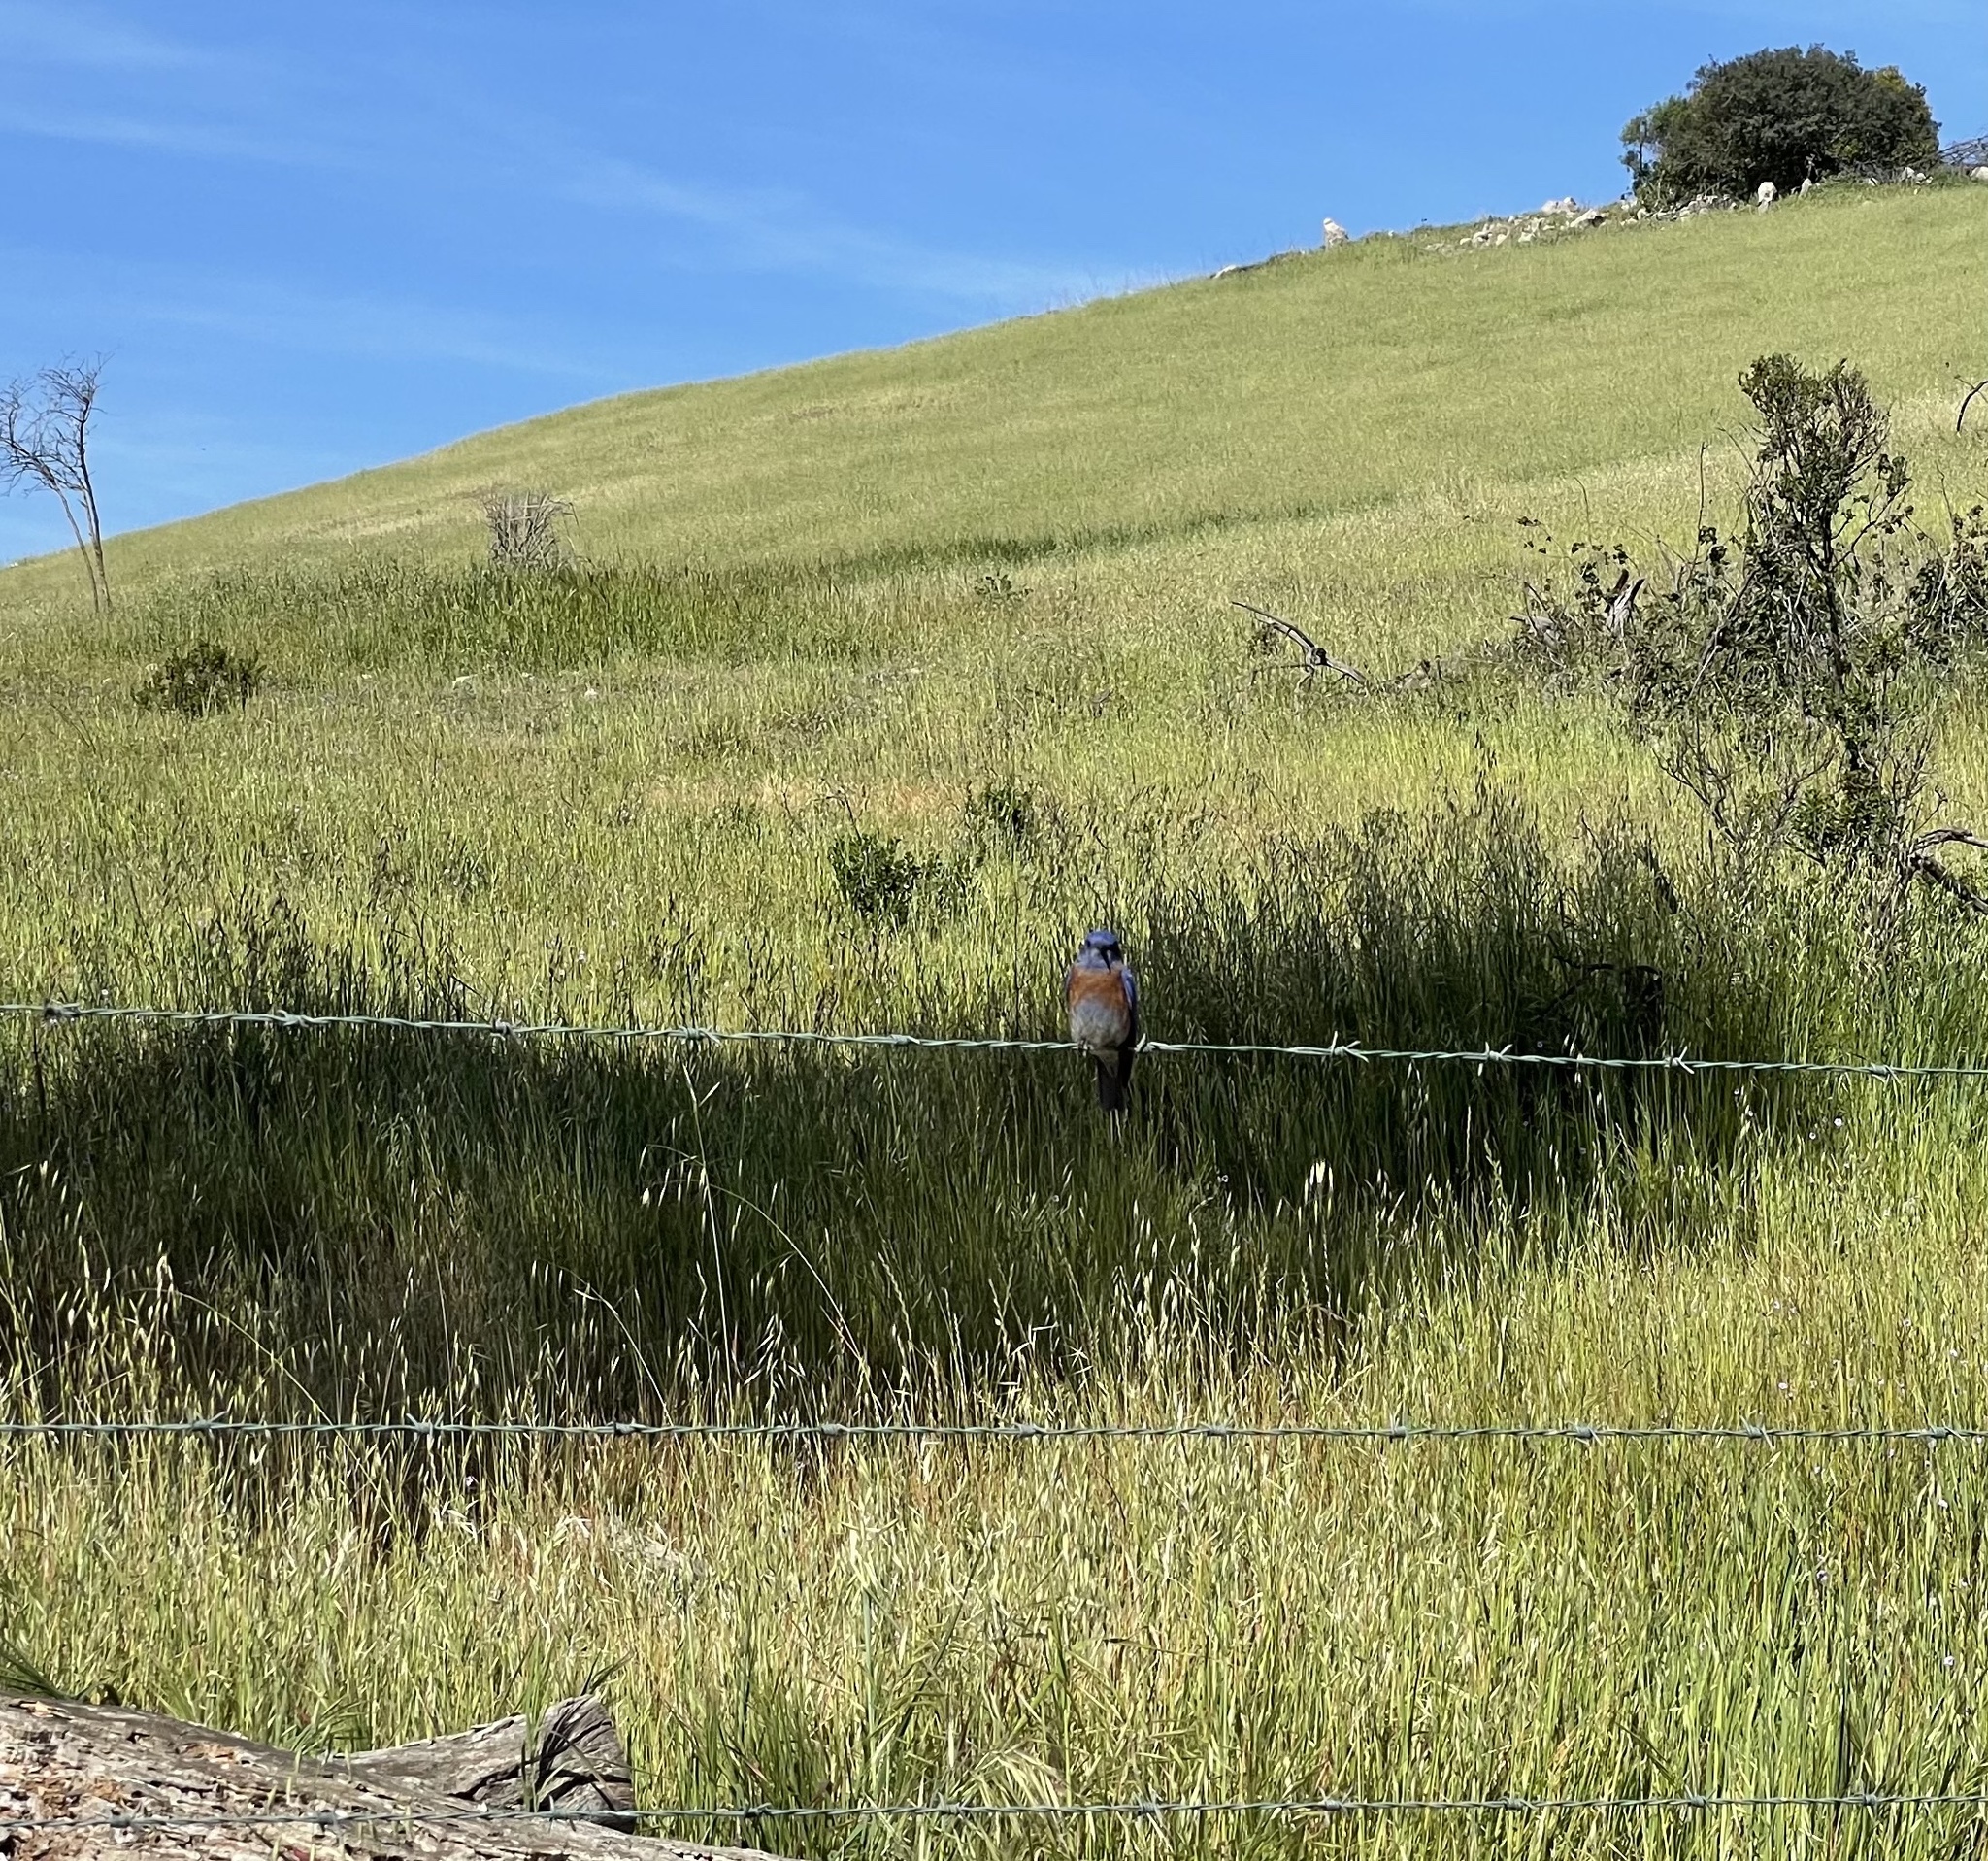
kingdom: Animalia
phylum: Chordata
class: Aves
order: Passeriformes
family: Turdidae
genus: Sialia
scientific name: Sialia mexicana
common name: Western bluebird
